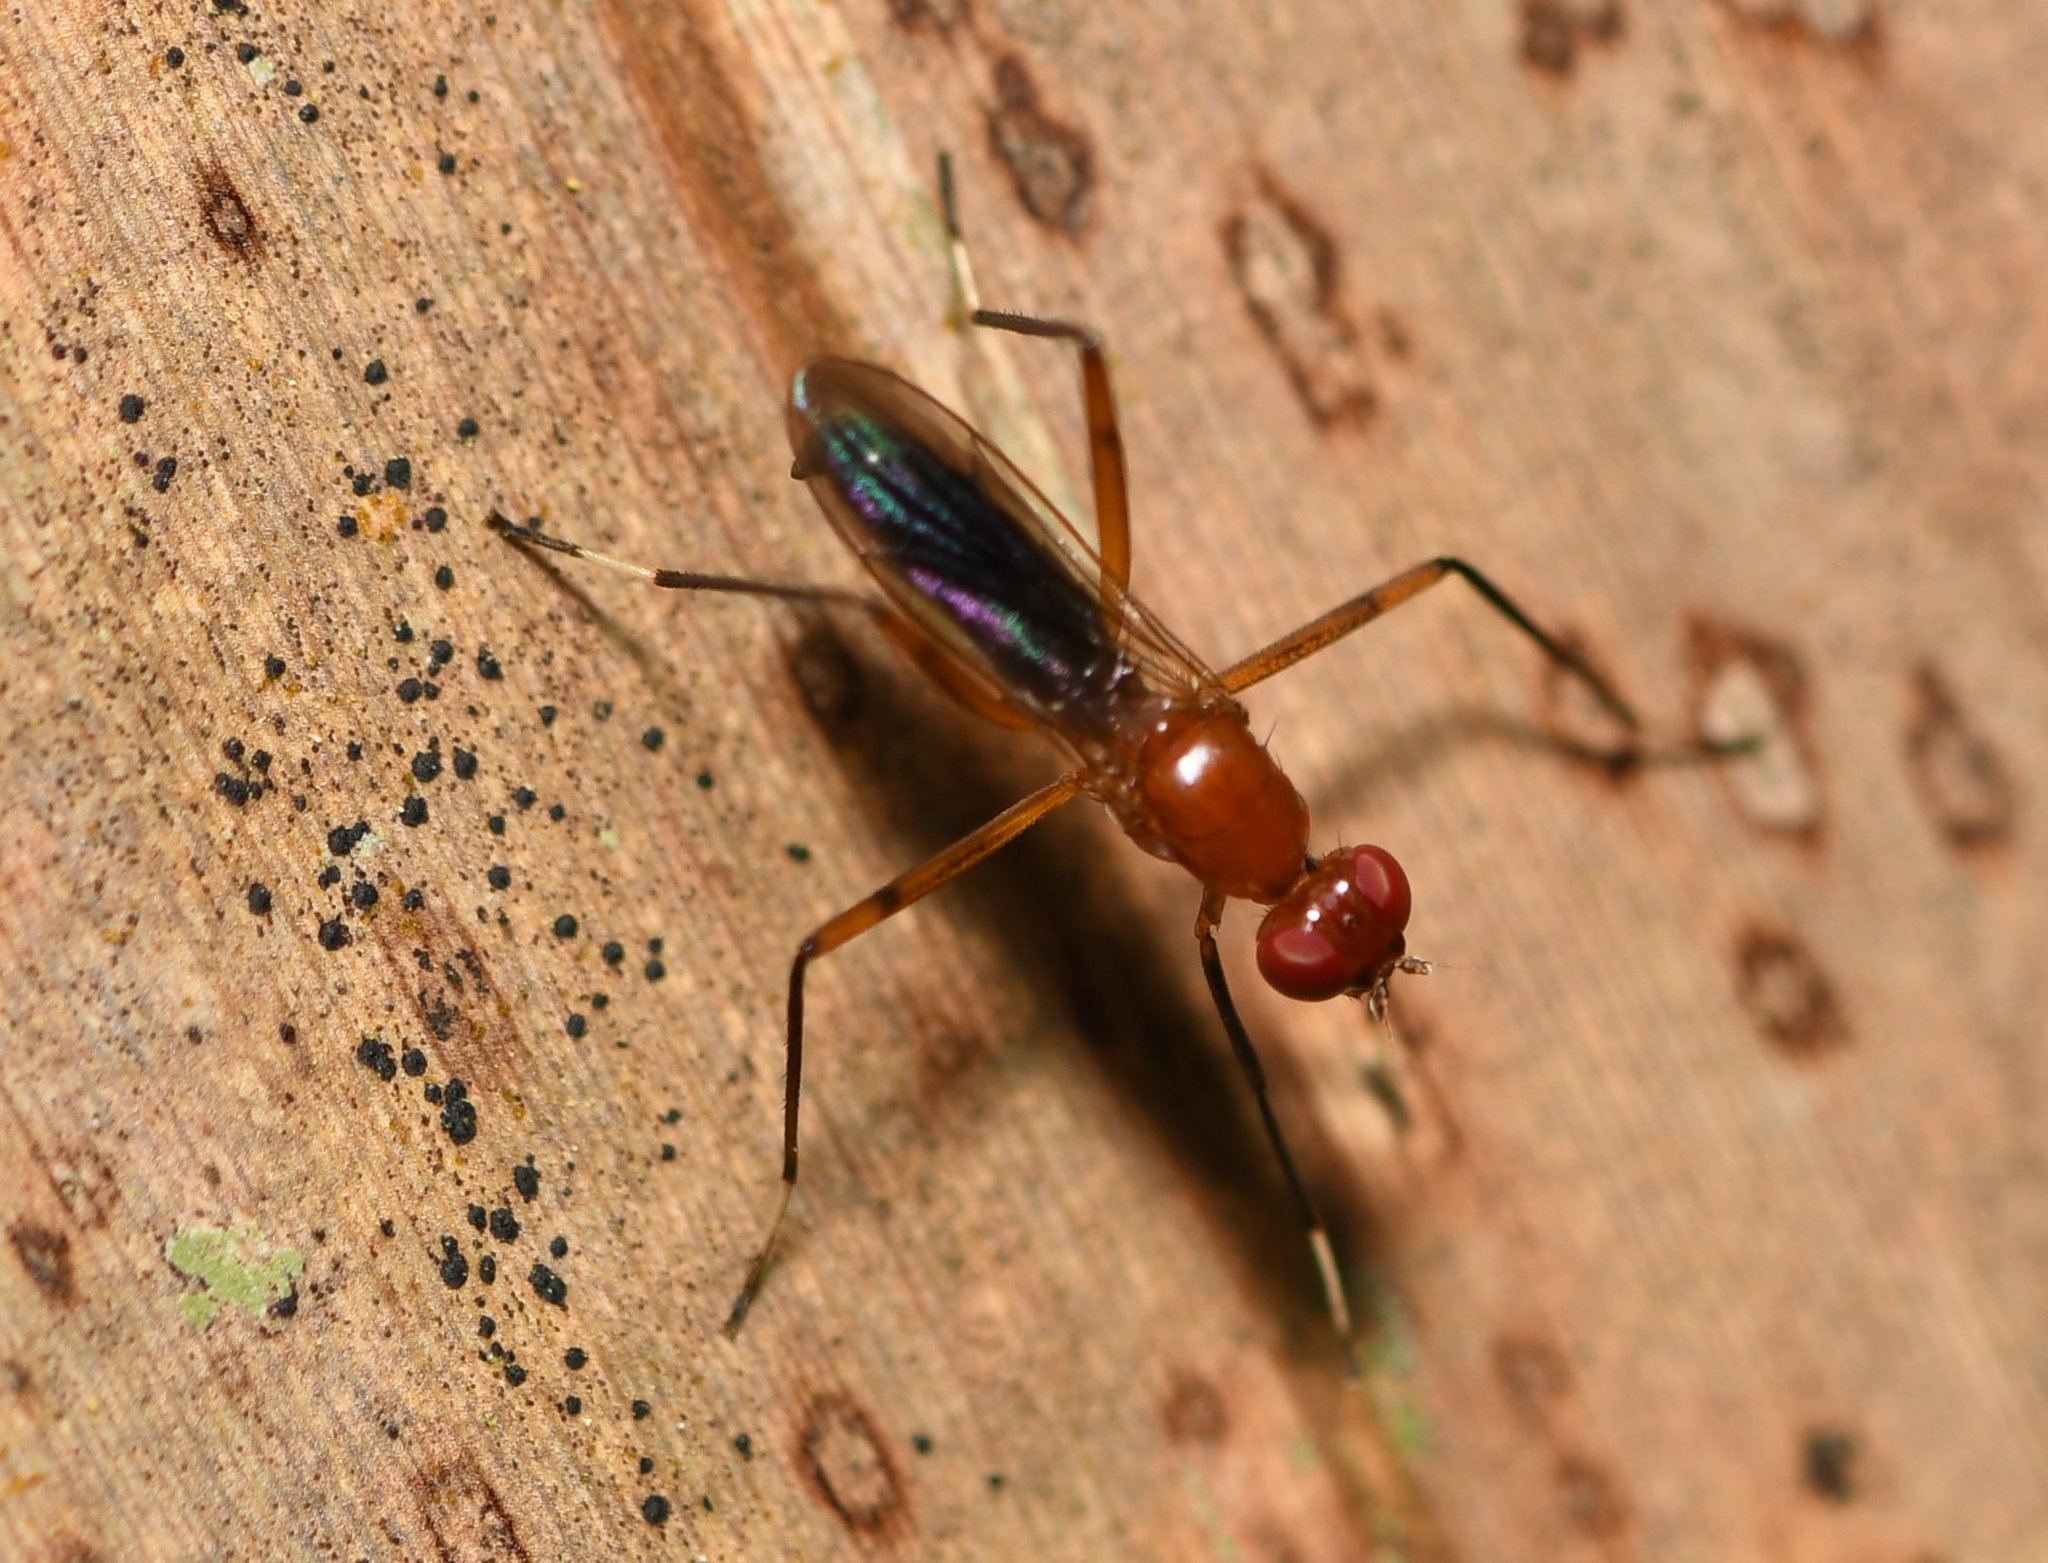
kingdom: Animalia
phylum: Arthropoda
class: Insecta
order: Diptera
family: Micropezidae
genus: Grallipeza
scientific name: Grallipeza nebulosa
